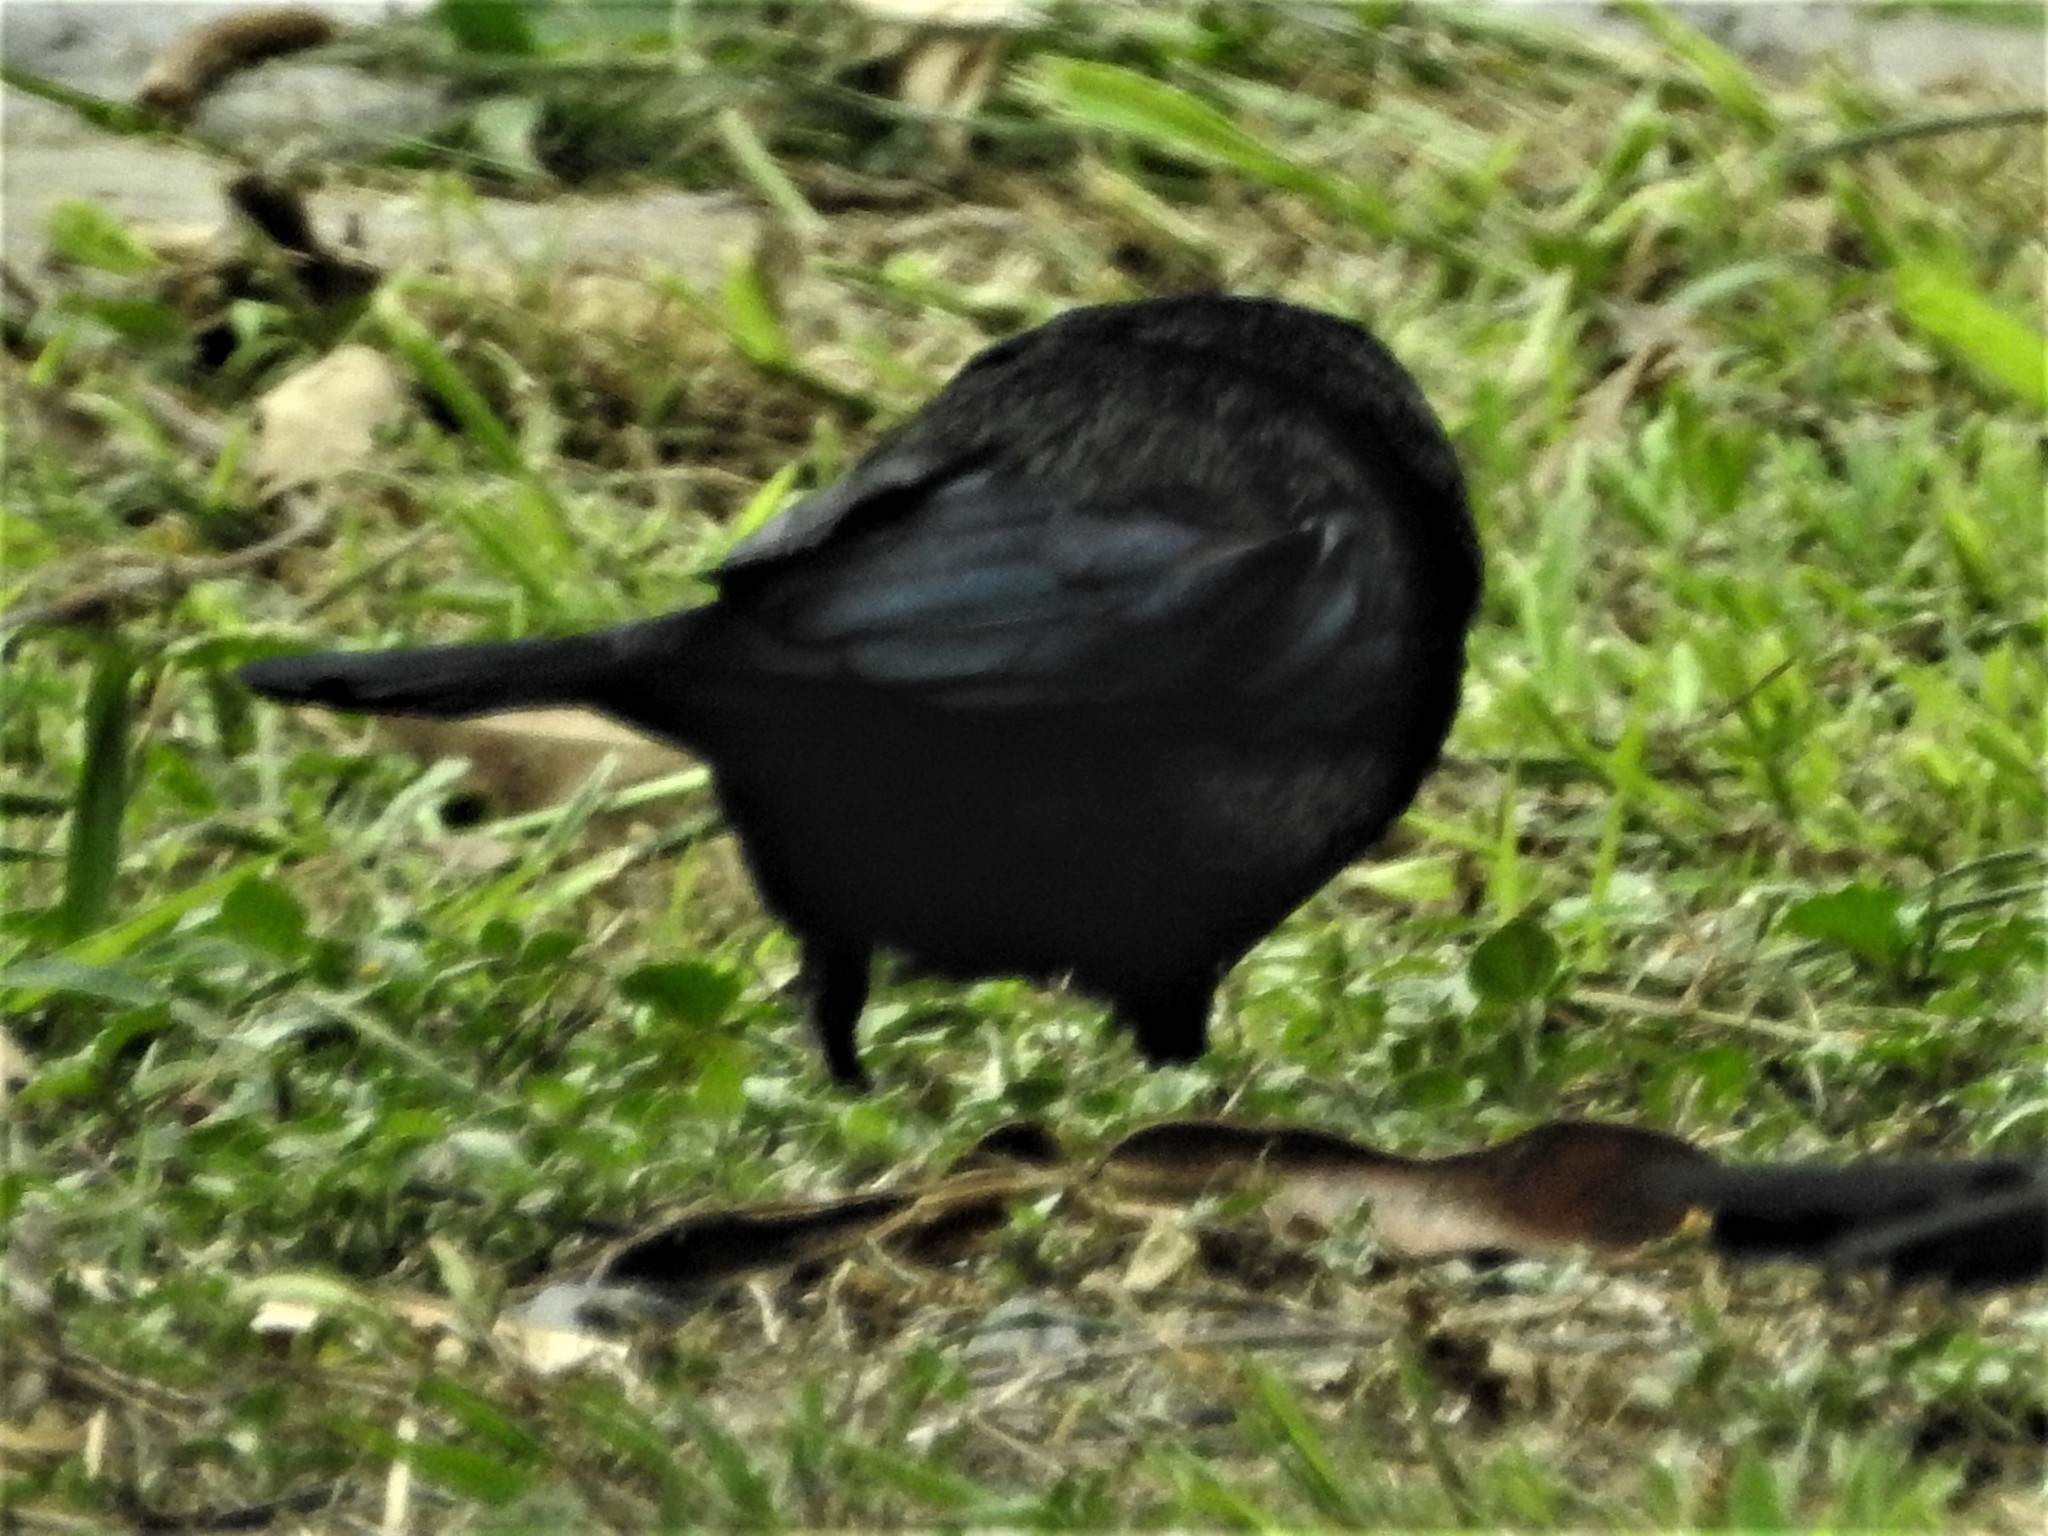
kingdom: Animalia
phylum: Chordata
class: Aves
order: Passeriformes
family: Icteridae
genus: Molothrus
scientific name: Molothrus aeneus
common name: Bronzed cowbird
